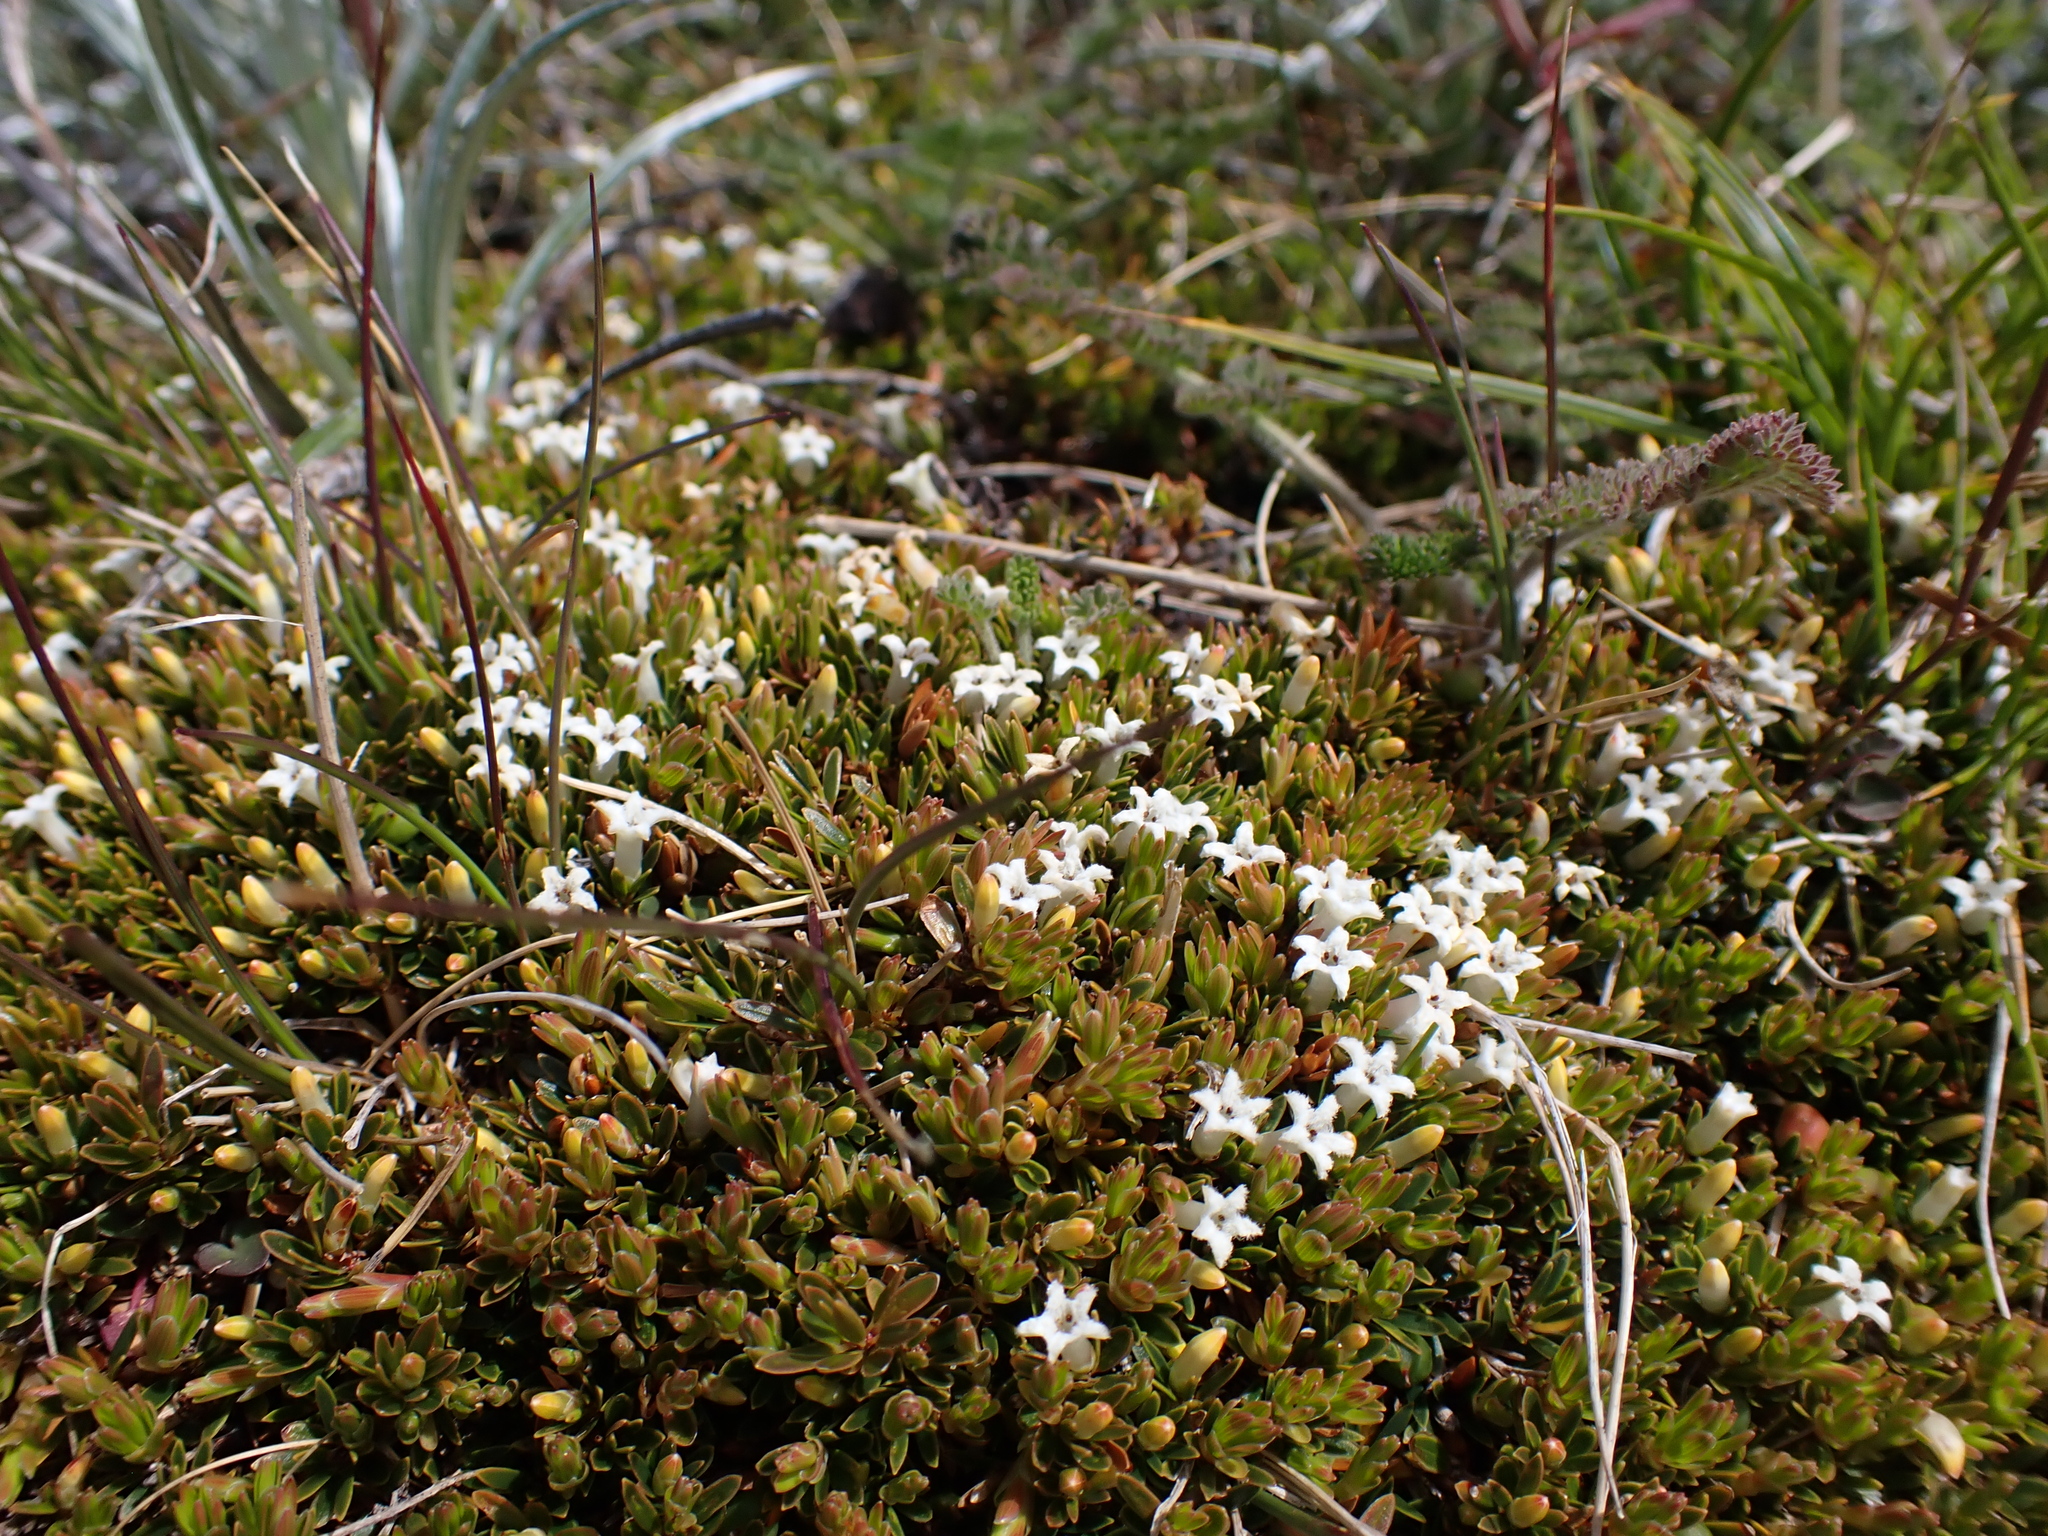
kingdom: Plantae
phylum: Tracheophyta
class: Magnoliopsida
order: Ericales
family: Ericaceae
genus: Pentachondra
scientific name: Pentachondra pumila
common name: Carpet-heath
